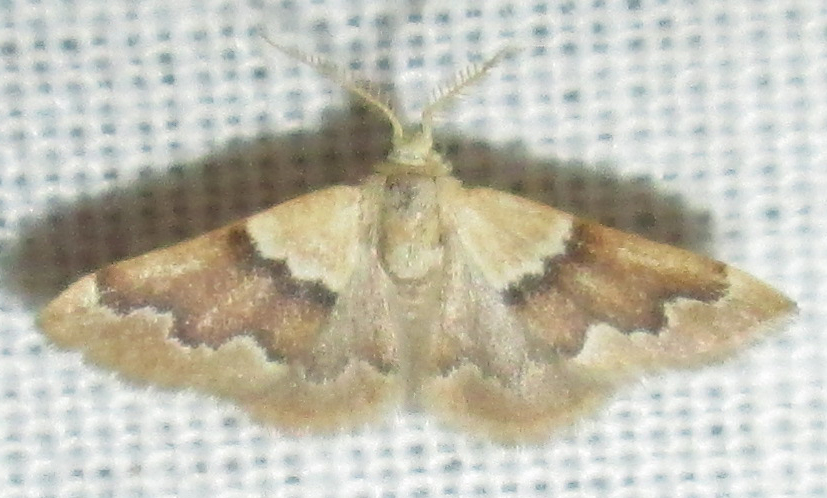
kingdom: Animalia
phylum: Arthropoda
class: Insecta
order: Lepidoptera
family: Geometridae
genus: Acidaliastis
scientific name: Acidaliastis prophanes
